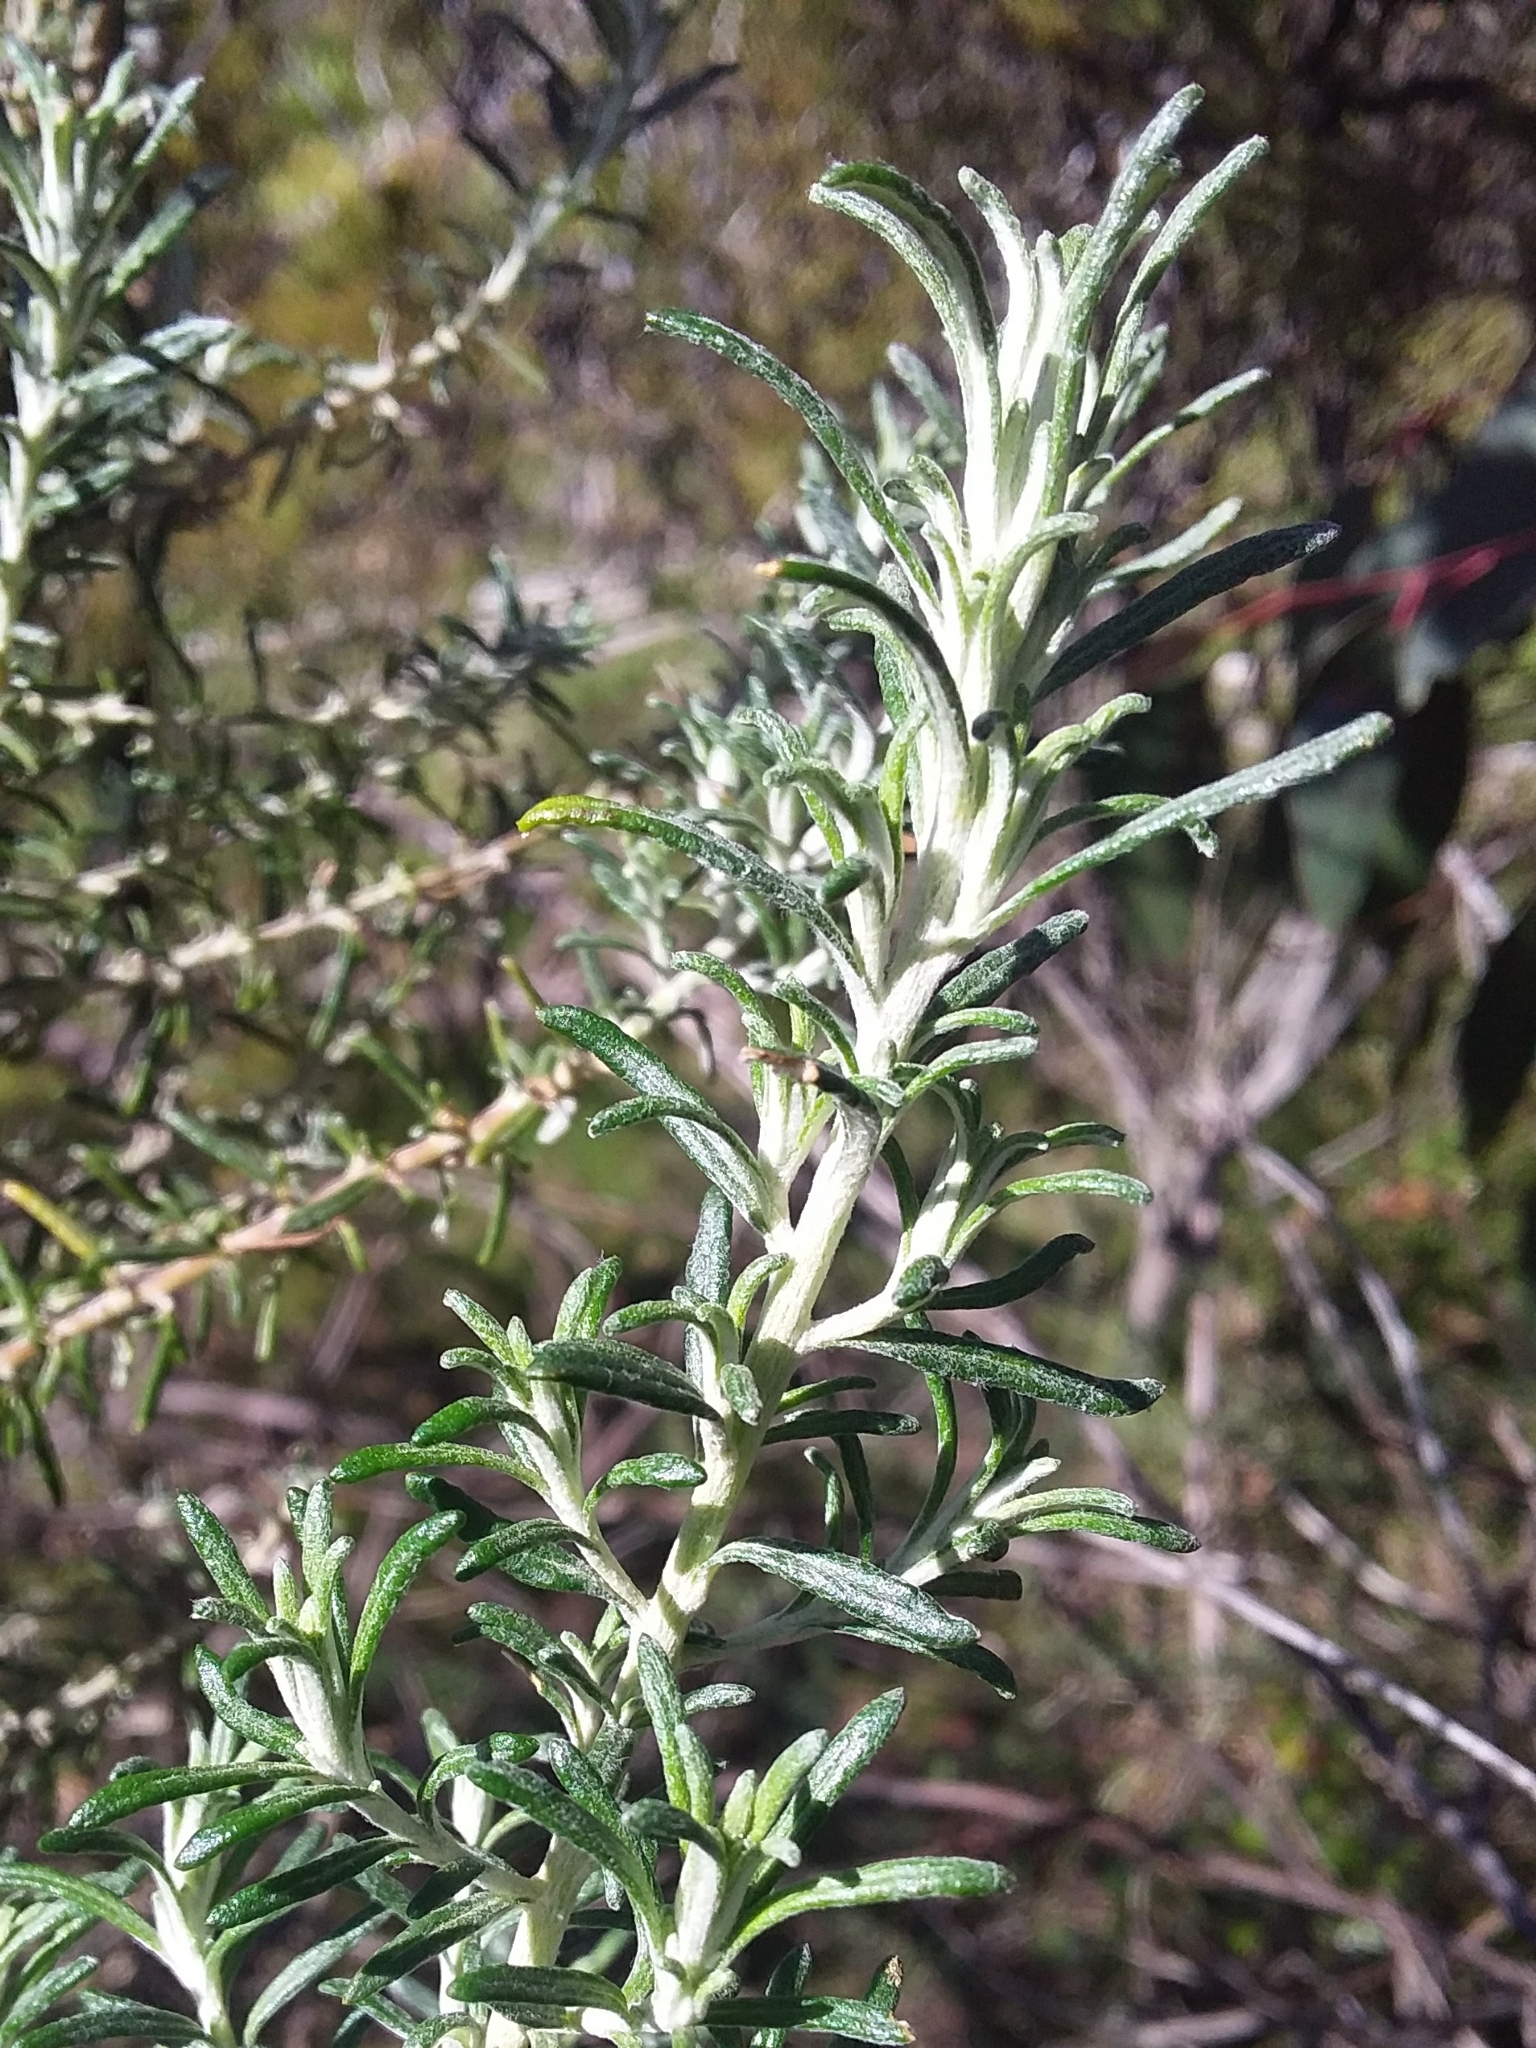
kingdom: Plantae
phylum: Tracheophyta
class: Magnoliopsida
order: Asterales
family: Asteraceae
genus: Olearia
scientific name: Olearia ramulosa
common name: Twiggy daisybush
